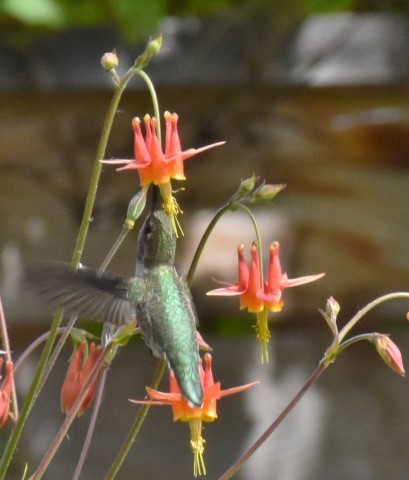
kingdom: Animalia
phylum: Chordata
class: Aves
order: Apodiformes
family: Trochilidae
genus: Calypte
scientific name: Calypte anna
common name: Anna's hummingbird
